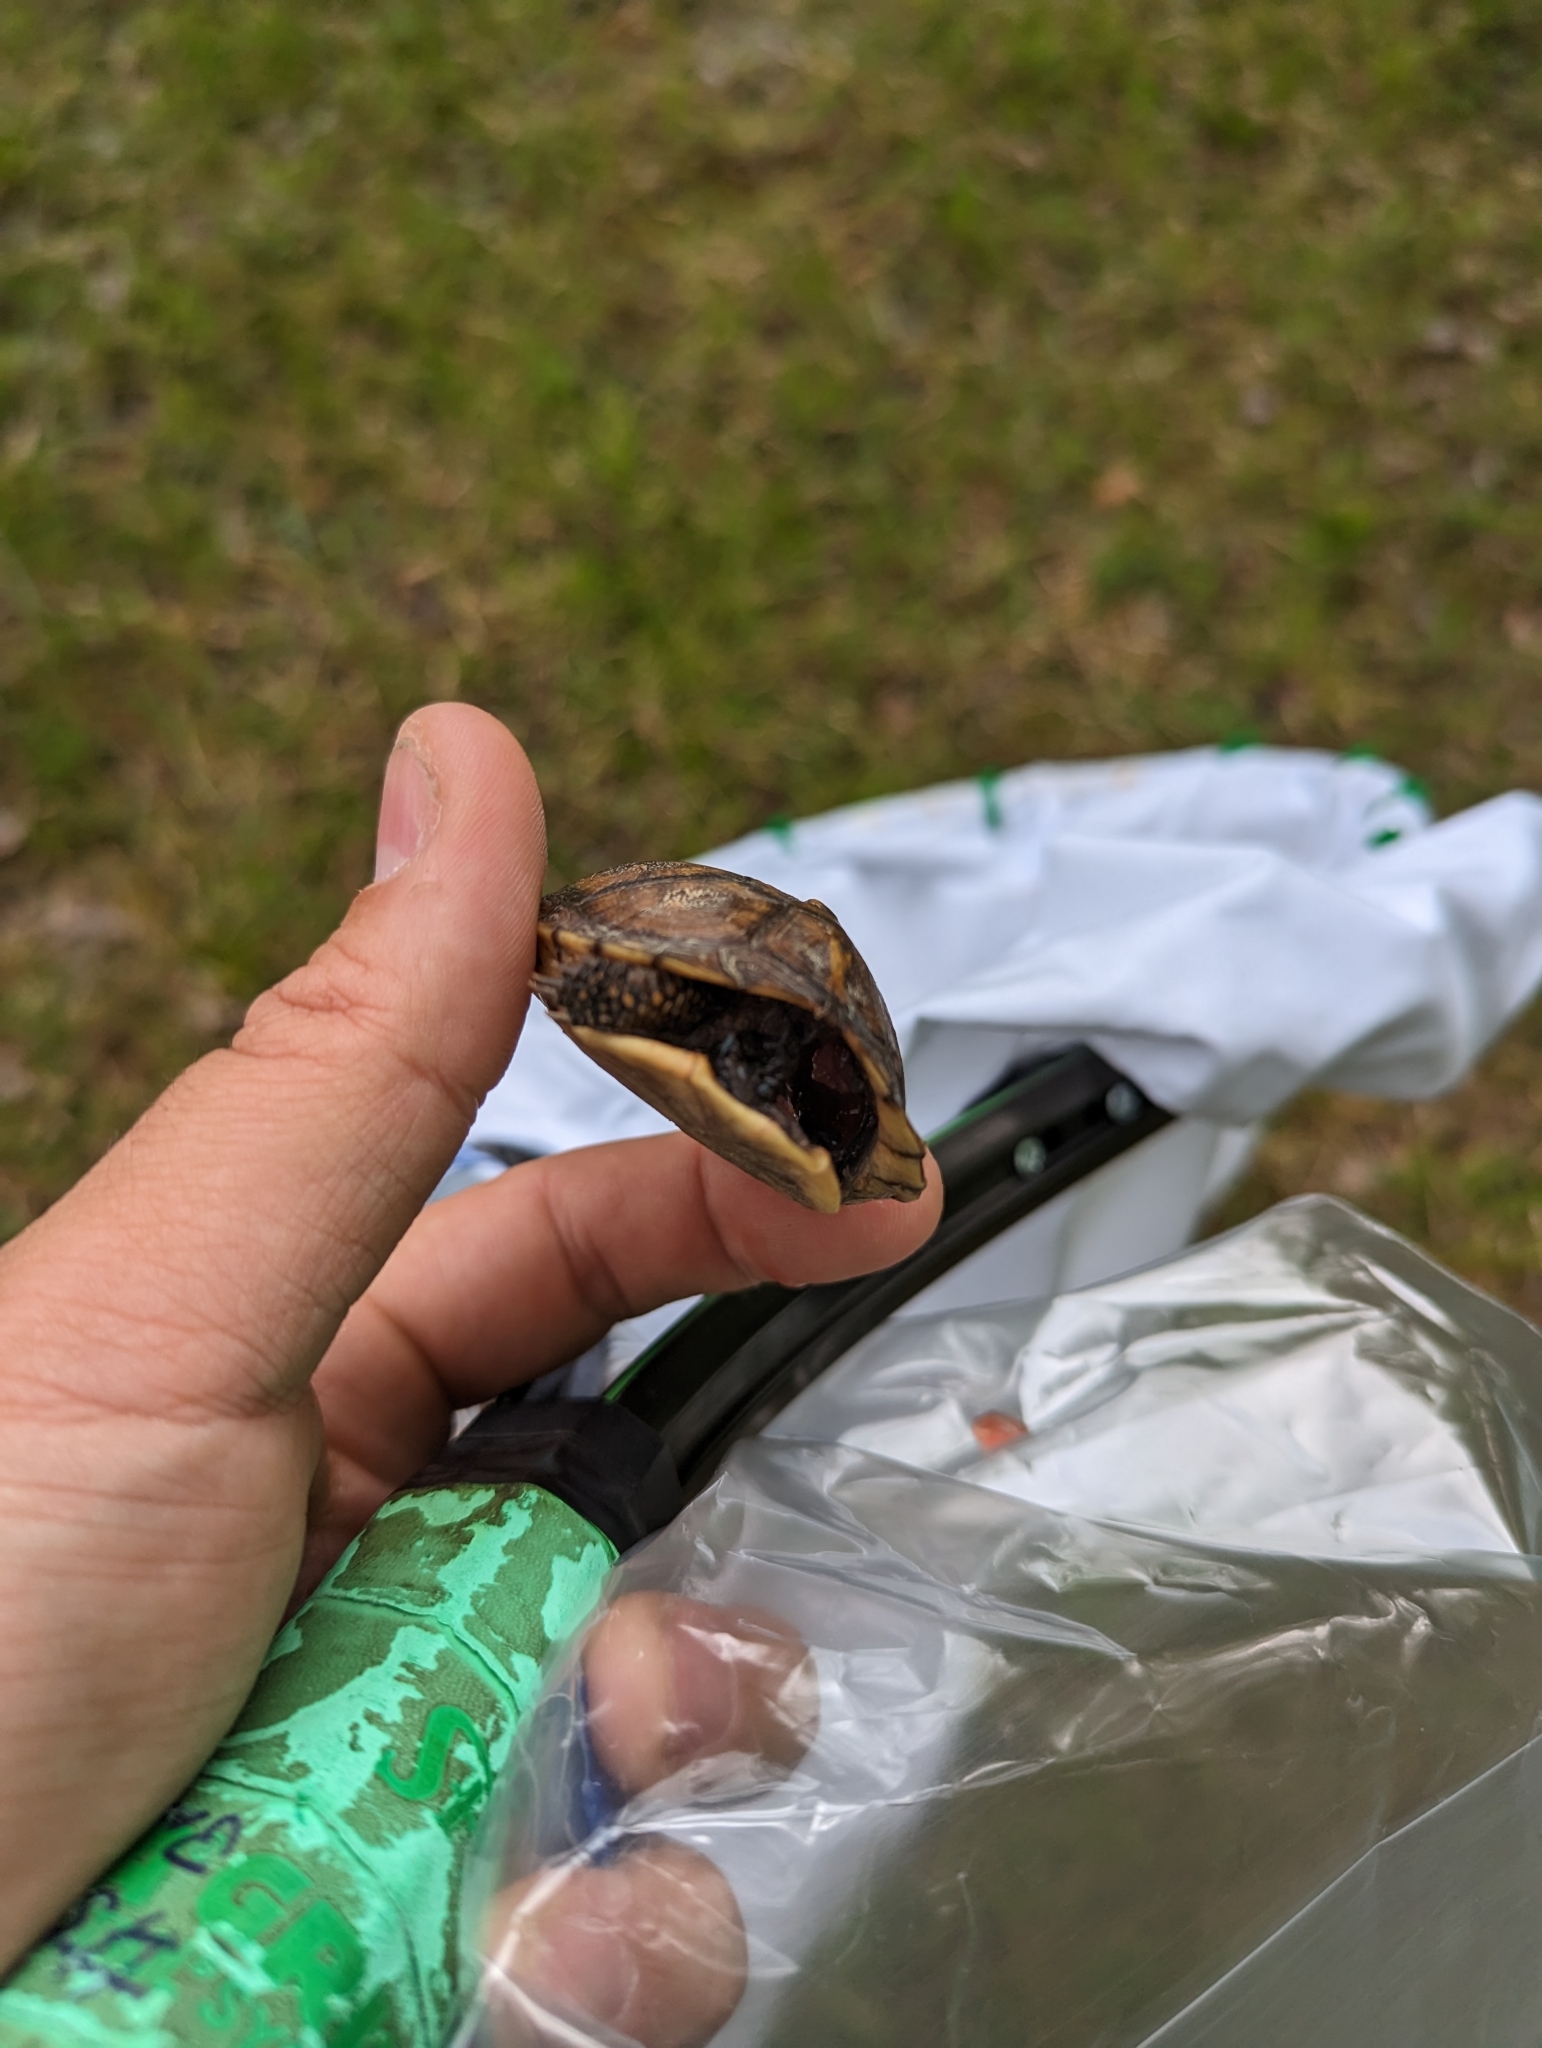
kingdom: Animalia
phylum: Chordata
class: Testudines
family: Emydidae
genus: Terrapene
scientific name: Terrapene carolina
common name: Common box turtle
